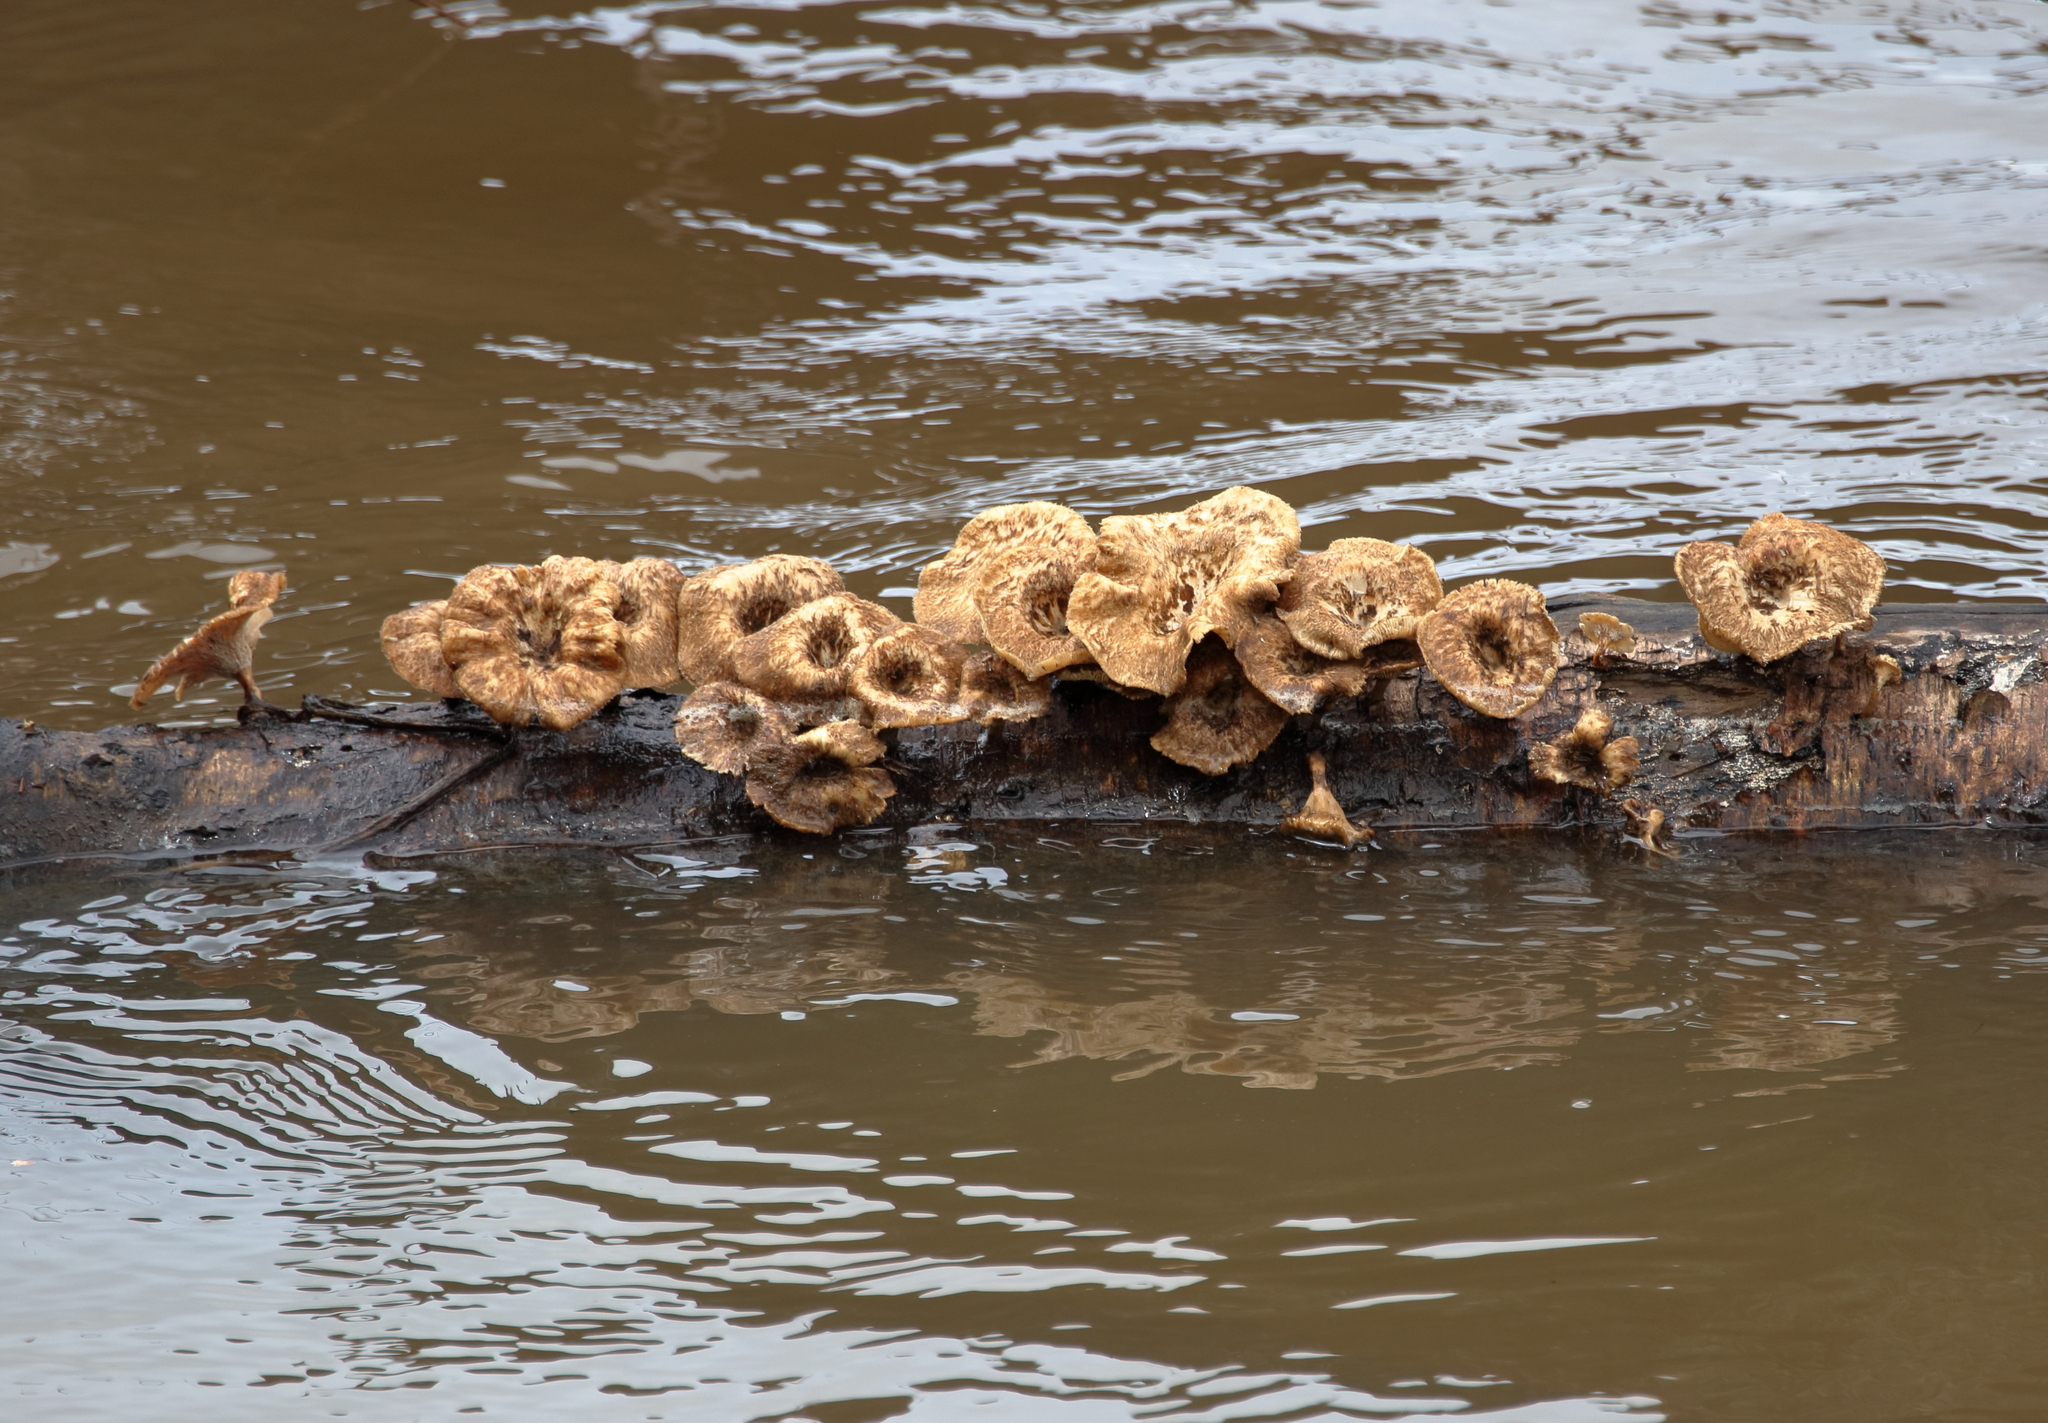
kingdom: Fungi
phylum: Basidiomycota
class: Agaricomycetes
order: Polyporales
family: Polyporaceae
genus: Lentinus
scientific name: Lentinus crinitus
